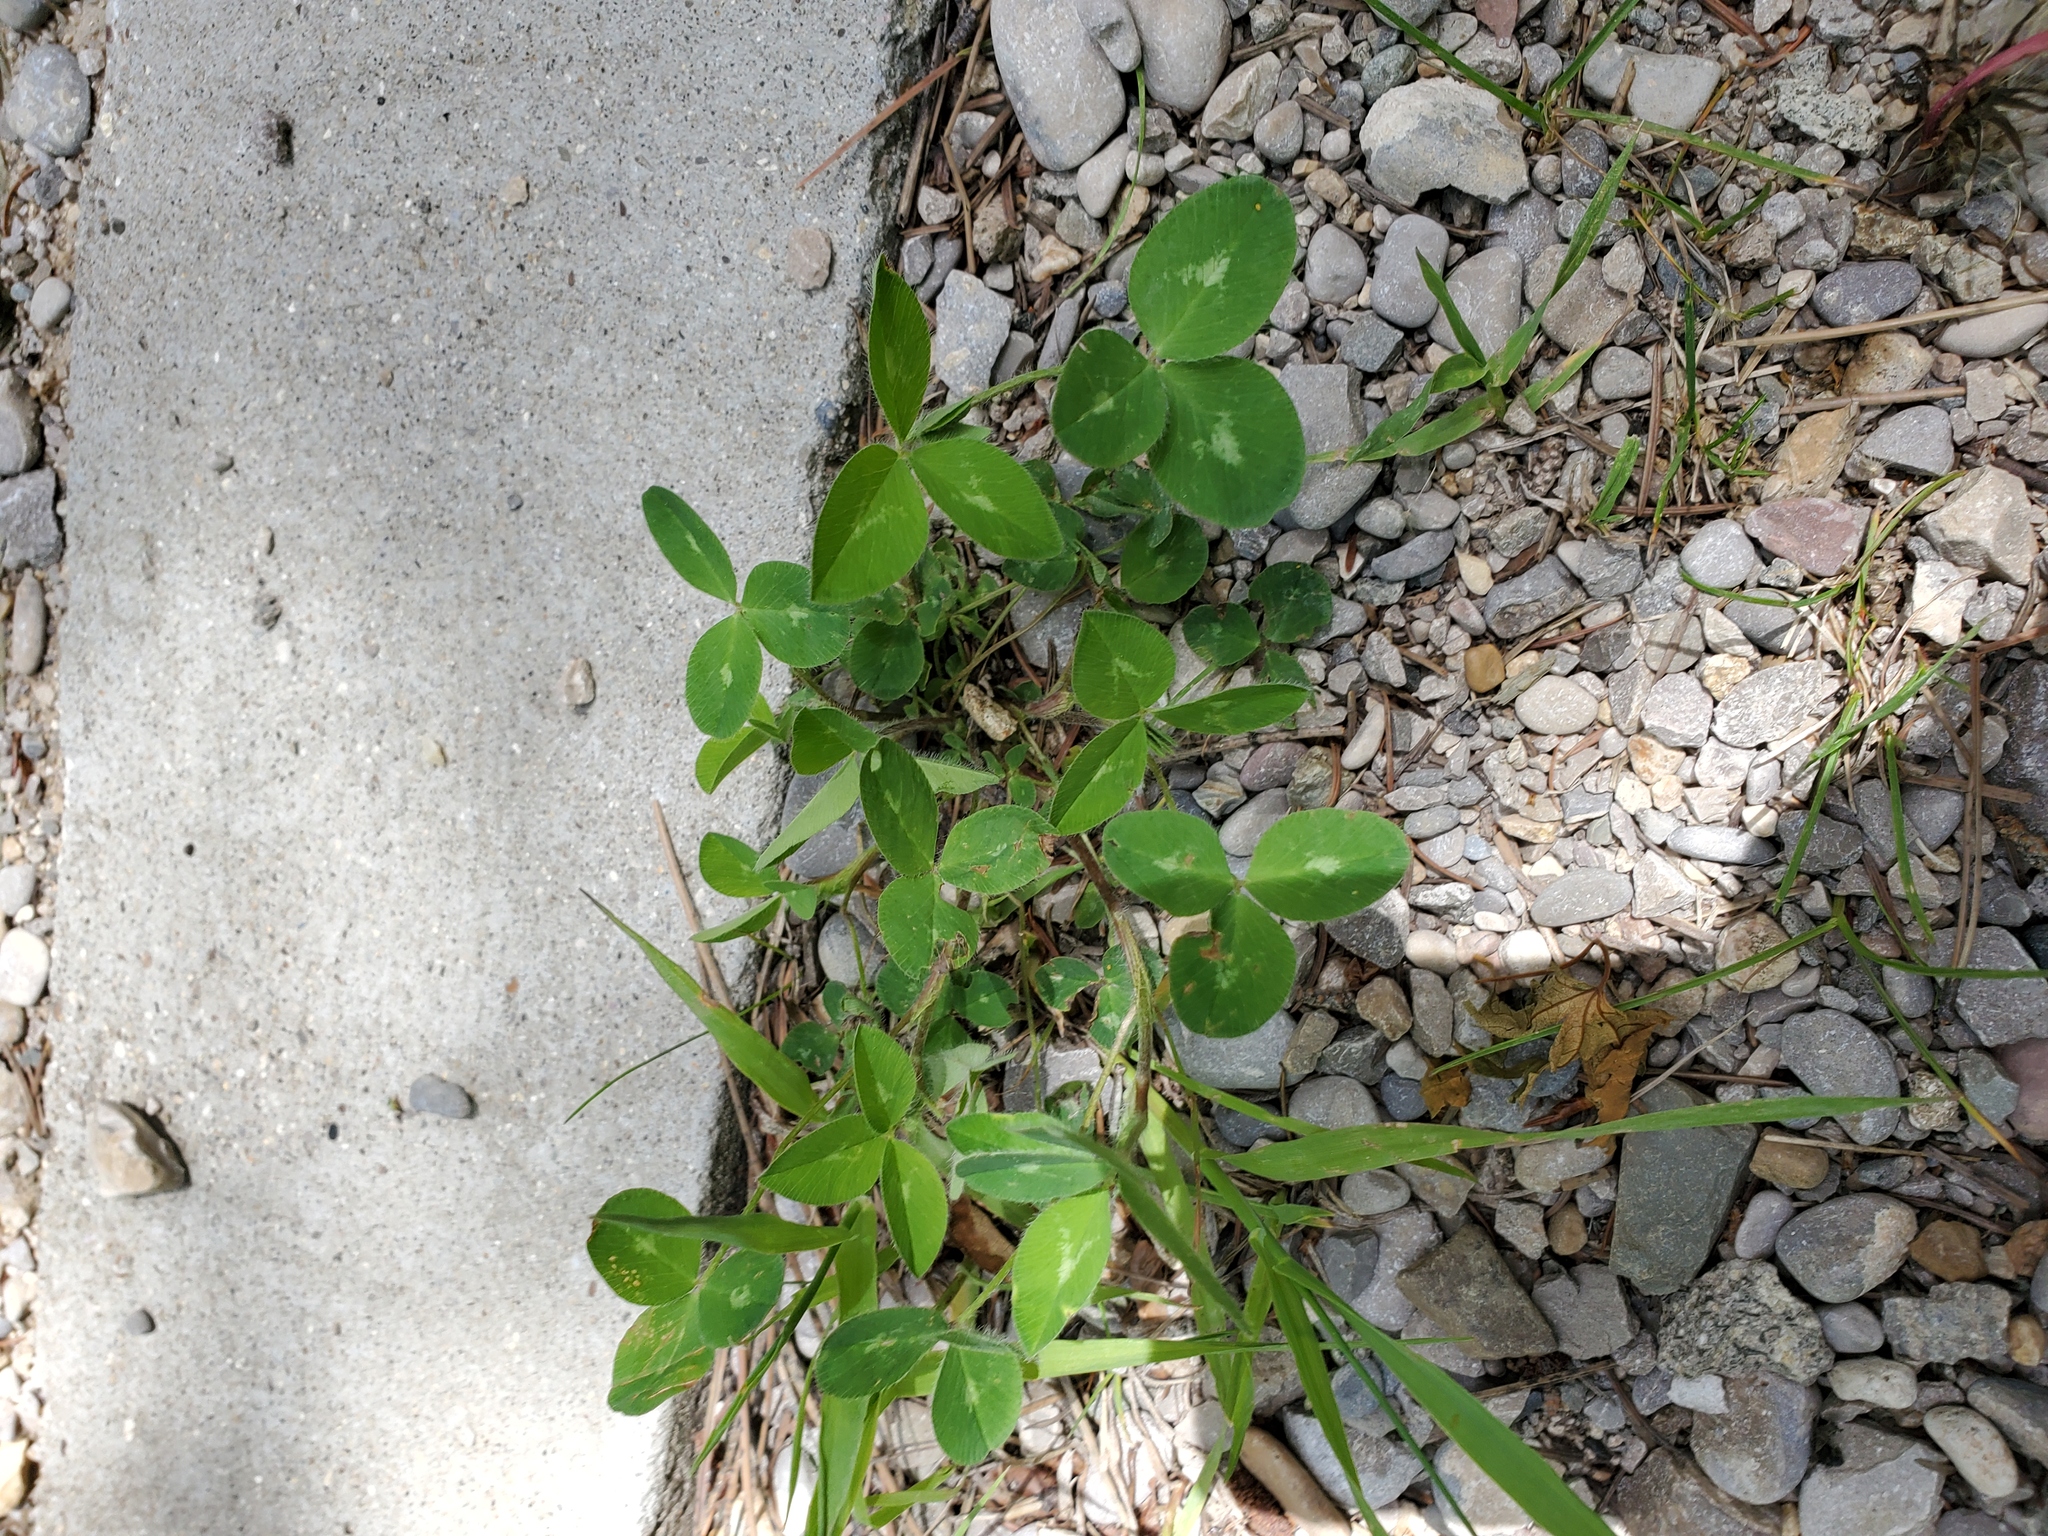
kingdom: Plantae
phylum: Tracheophyta
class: Magnoliopsida
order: Fabales
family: Fabaceae
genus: Trifolium
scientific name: Trifolium pratense
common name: Red clover
